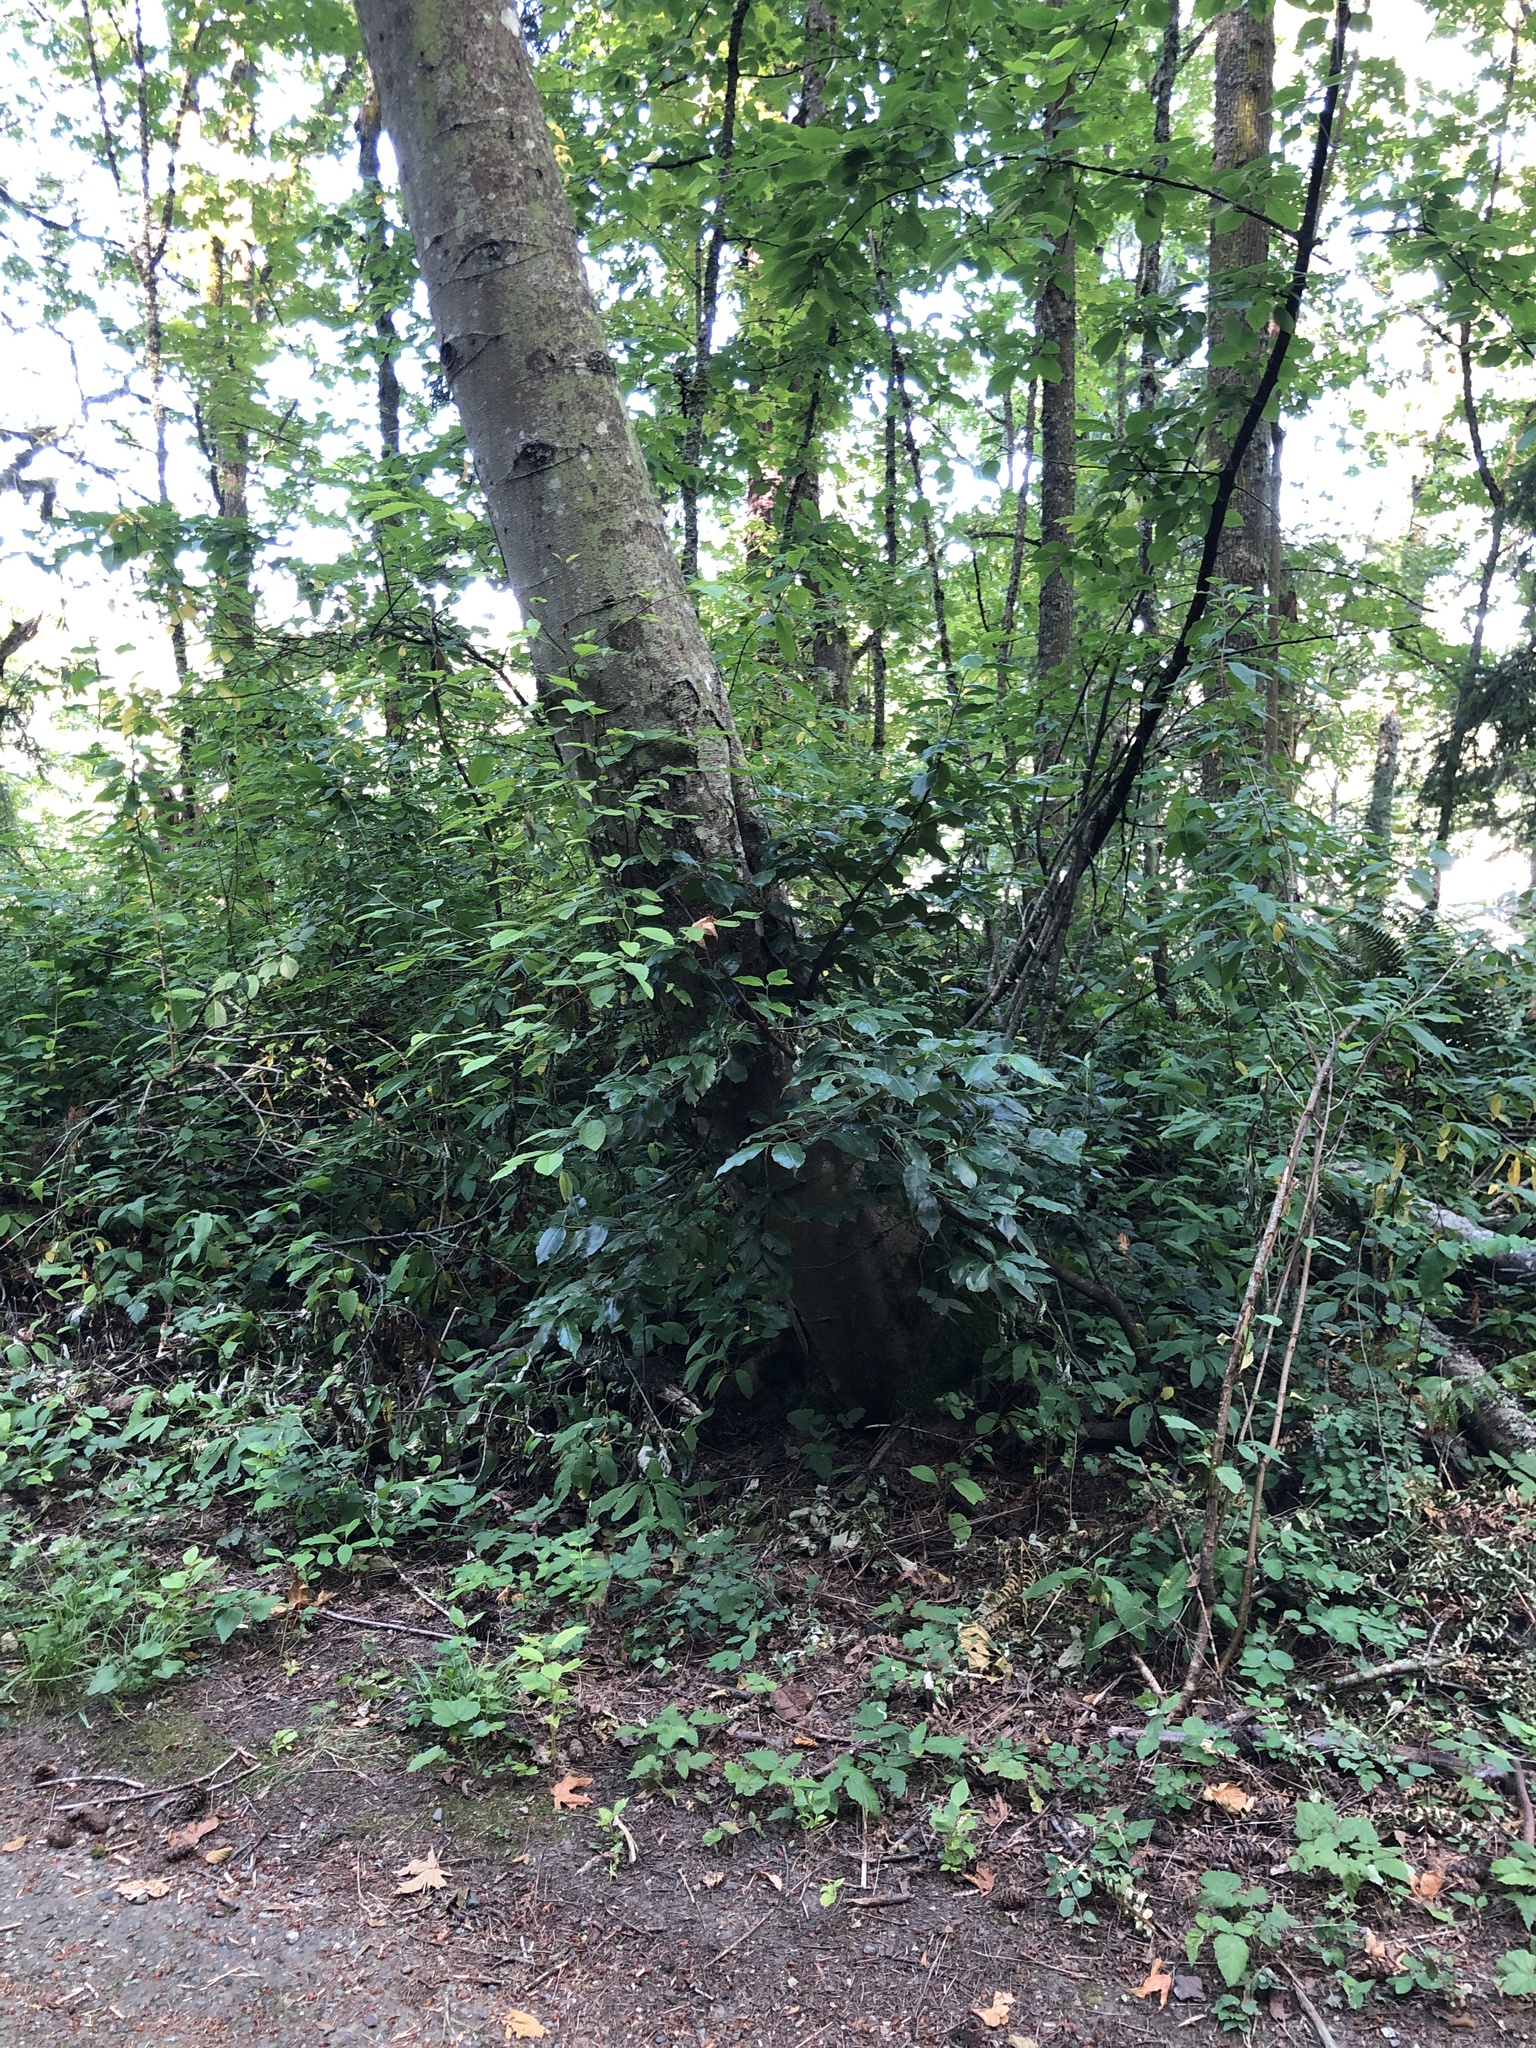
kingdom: Plantae
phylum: Tracheophyta
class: Magnoliopsida
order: Rosales
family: Rosaceae
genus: Prunus
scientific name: Prunus lusitanica
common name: Portugal laurel
